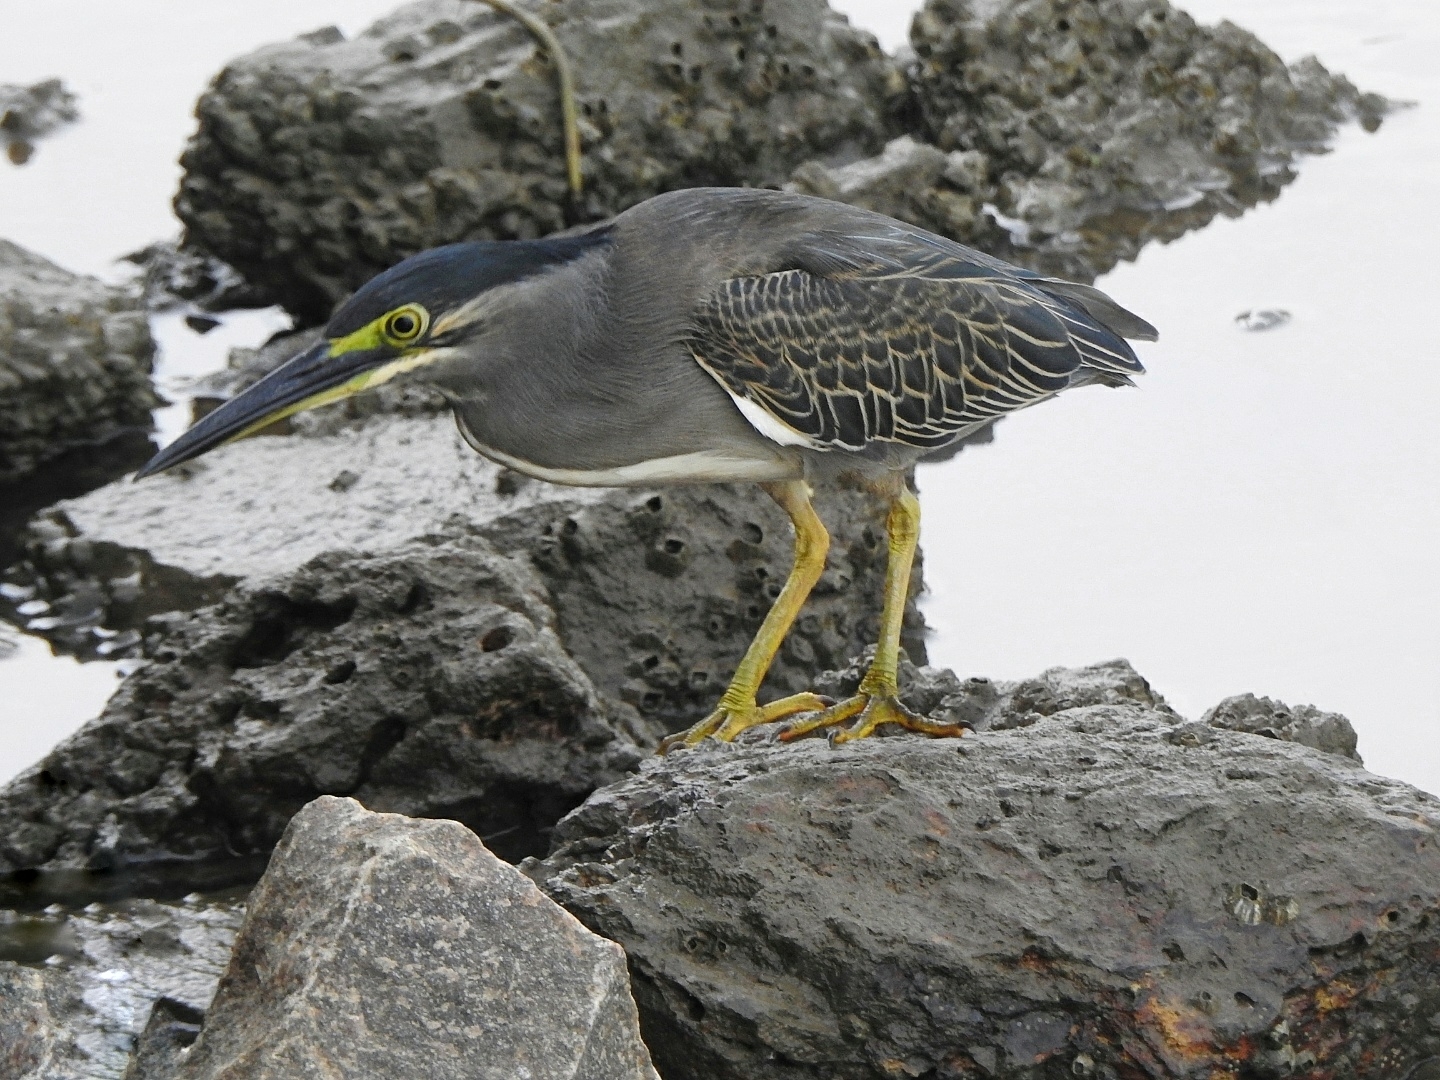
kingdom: Animalia
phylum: Chordata
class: Aves
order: Pelecaniformes
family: Ardeidae
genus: Butorides
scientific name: Butorides striata
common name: Striated heron
